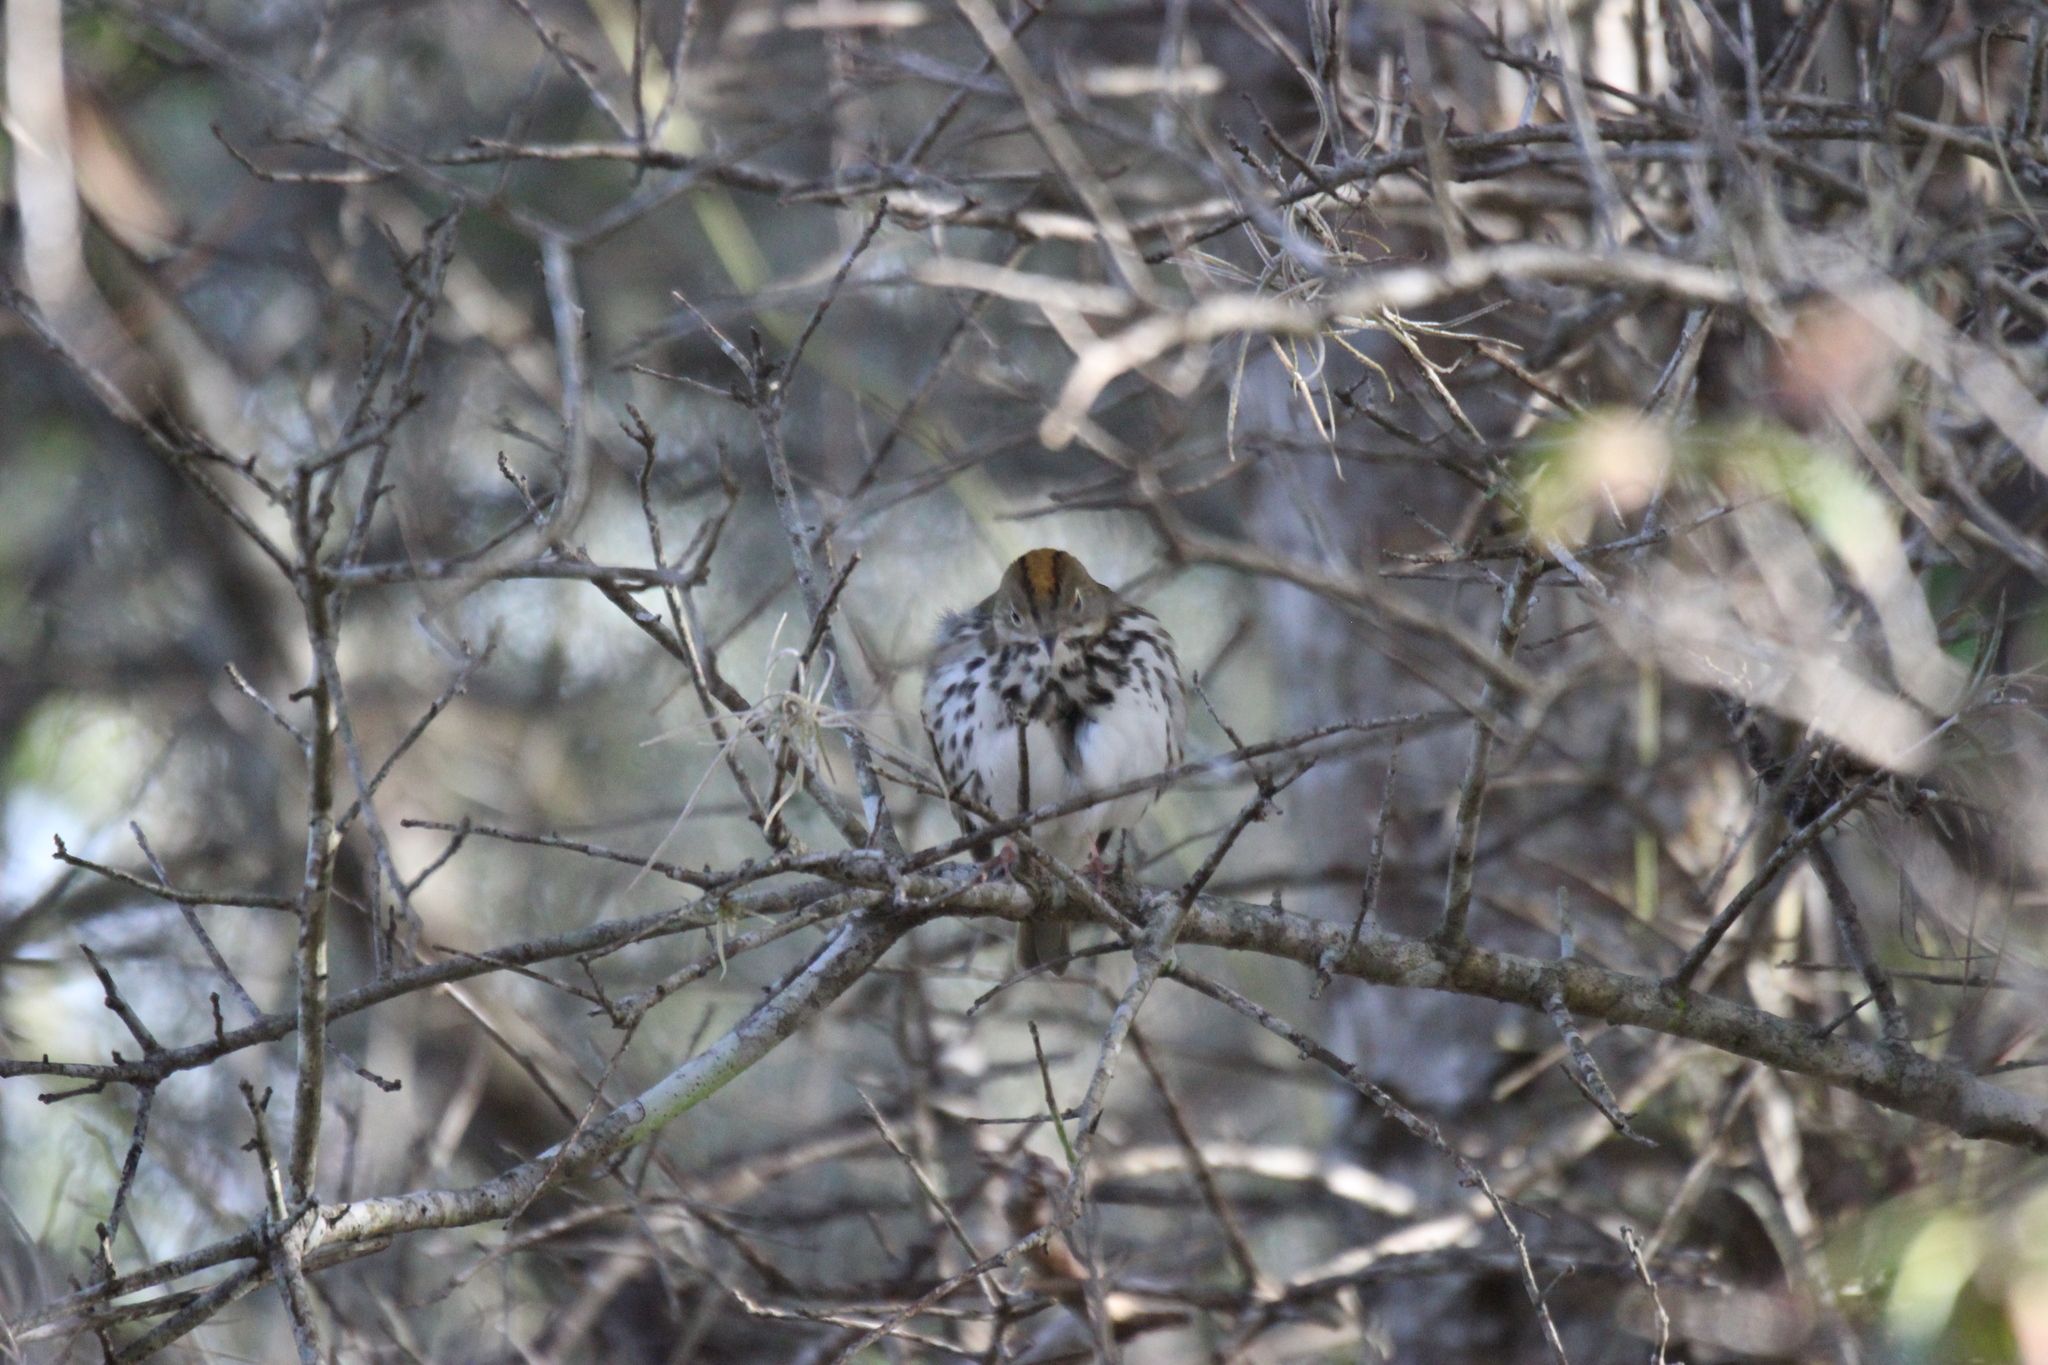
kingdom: Animalia
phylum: Chordata
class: Aves
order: Passeriformes
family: Parulidae
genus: Seiurus
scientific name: Seiurus aurocapilla
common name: Ovenbird
